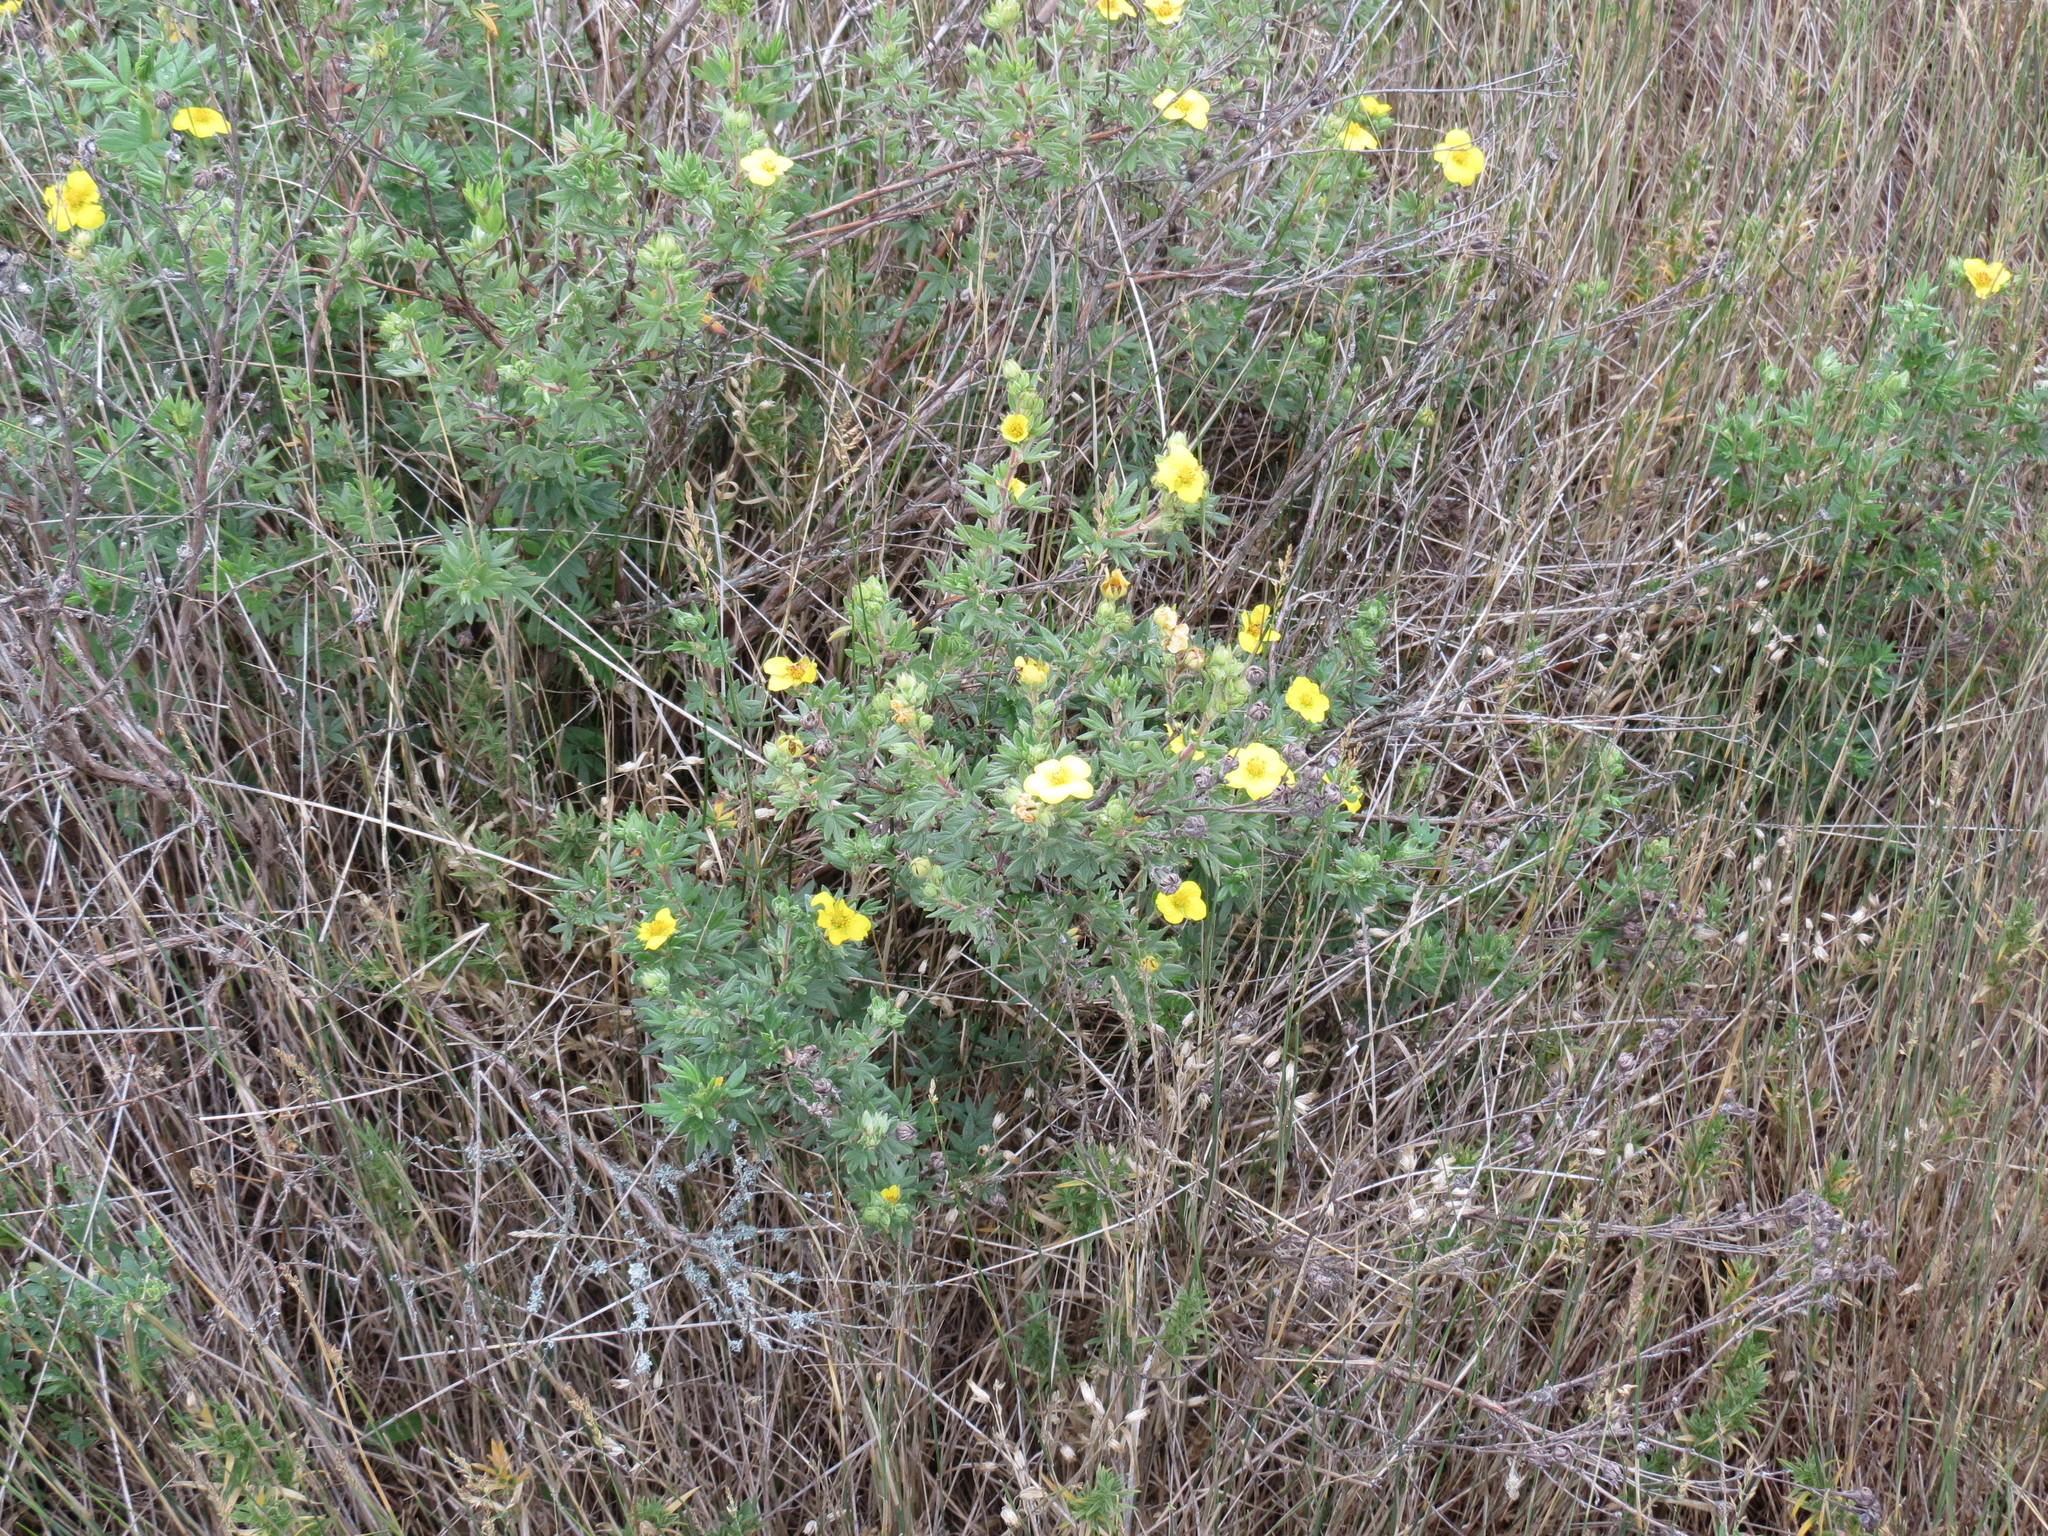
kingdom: Plantae
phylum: Tracheophyta
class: Magnoliopsida
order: Rosales
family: Rosaceae
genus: Dasiphora
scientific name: Dasiphora fruticosa
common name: Shrubby cinquefoil
